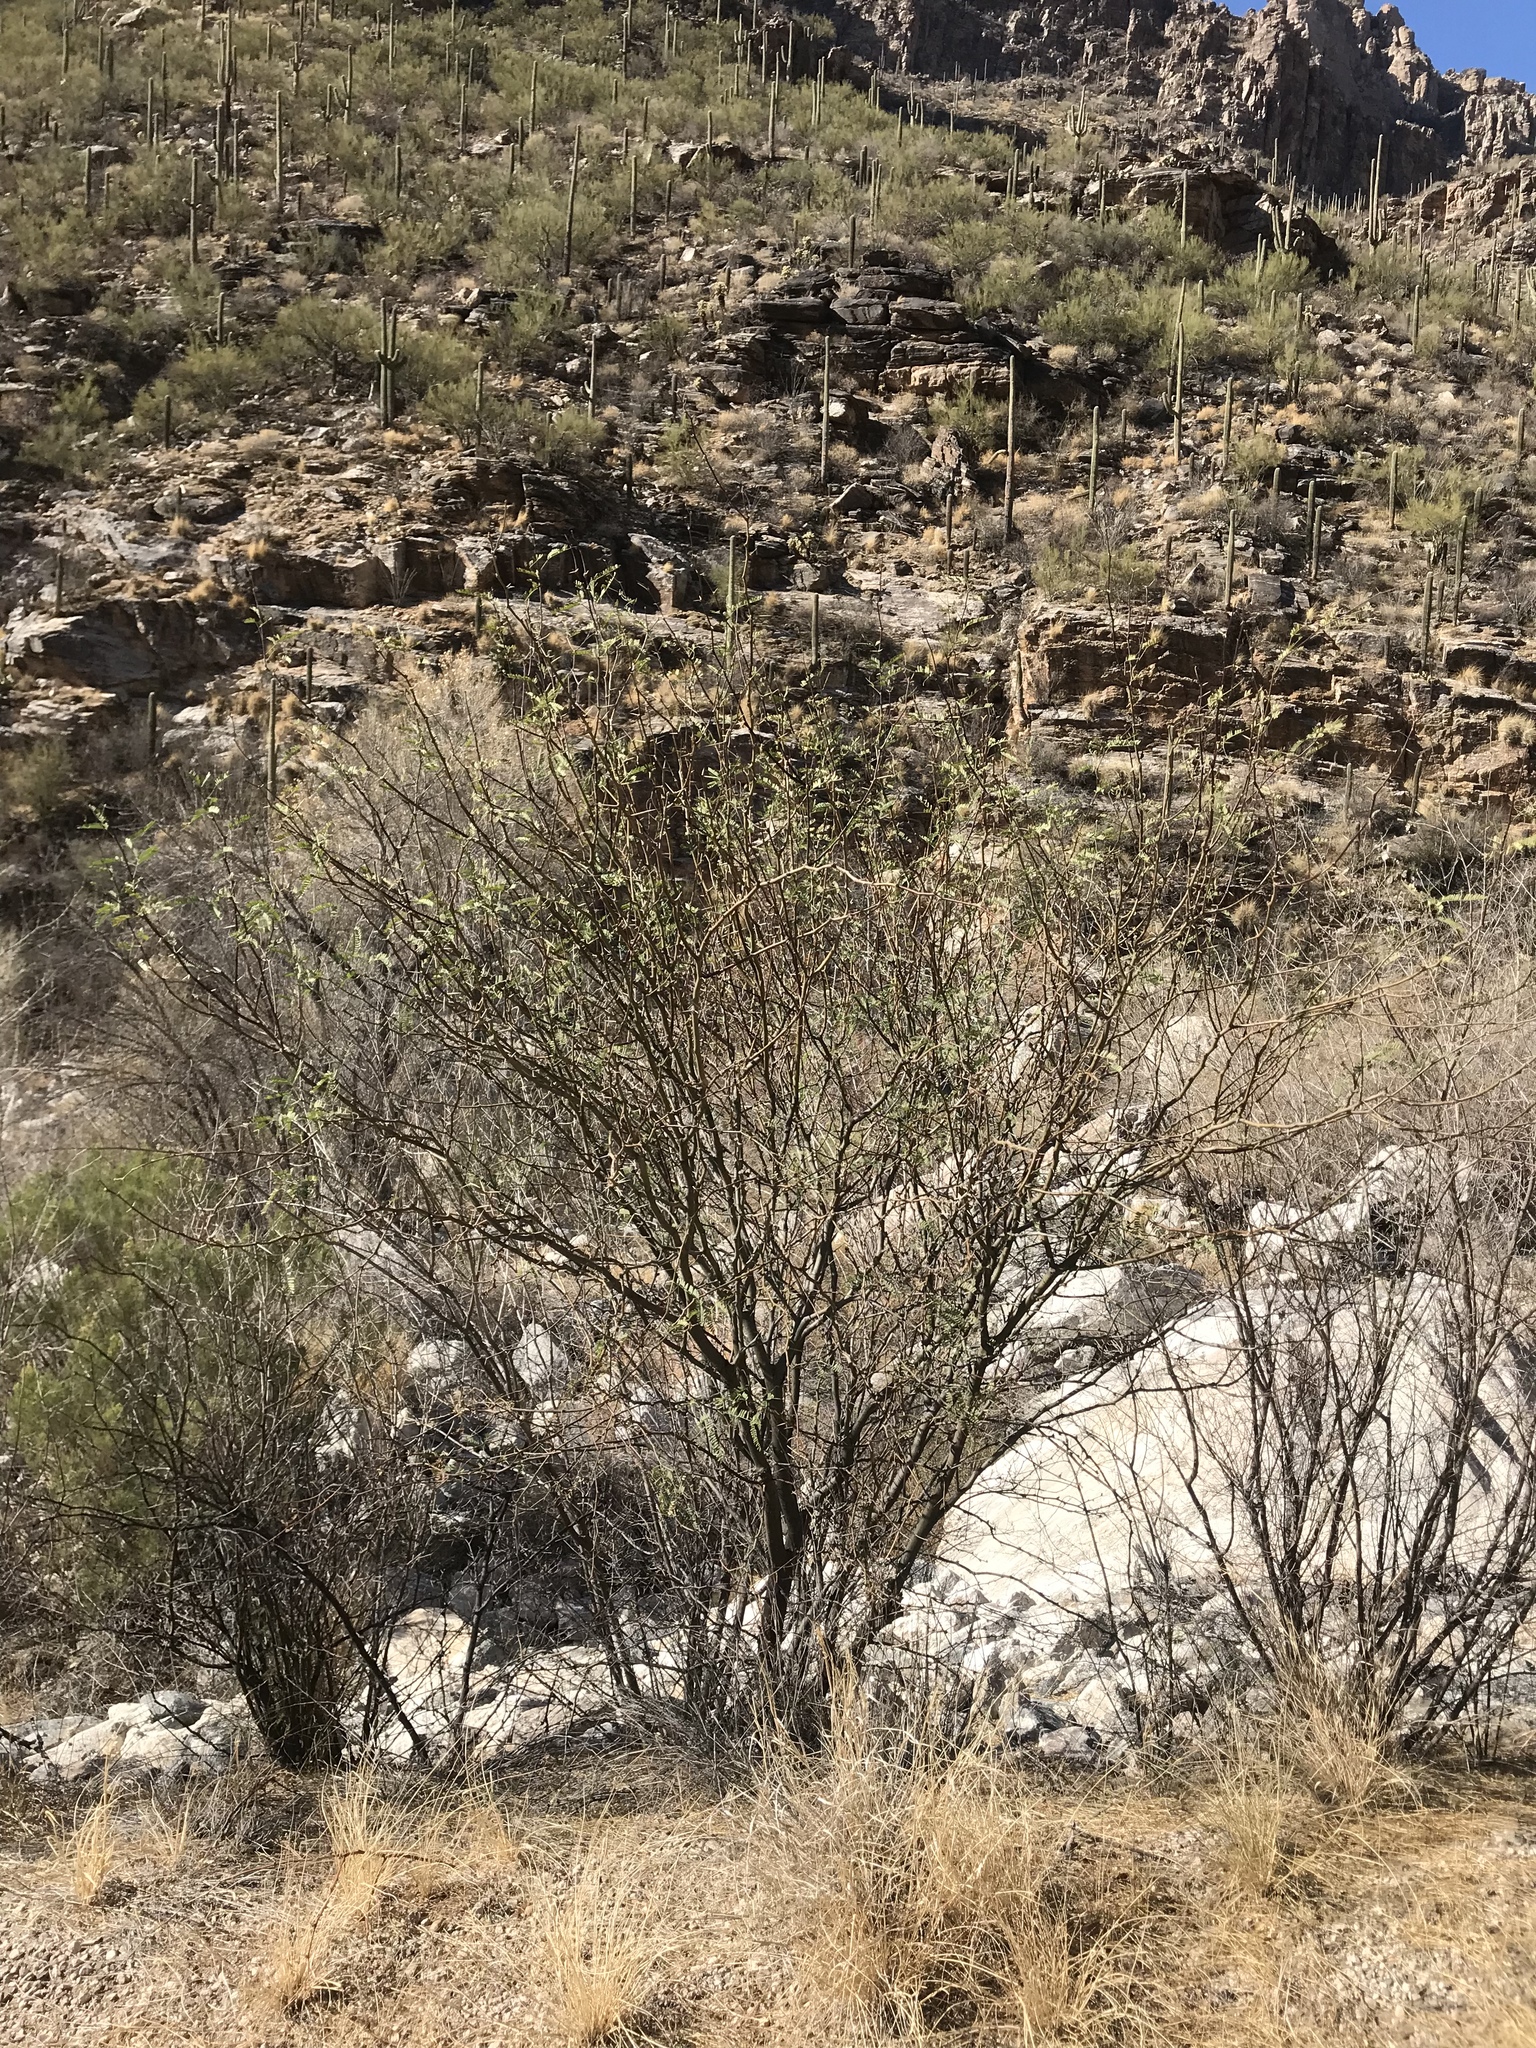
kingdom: Plantae
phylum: Tracheophyta
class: Magnoliopsida
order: Fabales
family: Fabaceae
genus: Prosopis
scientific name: Prosopis glandulosa
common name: Honey mesquite
